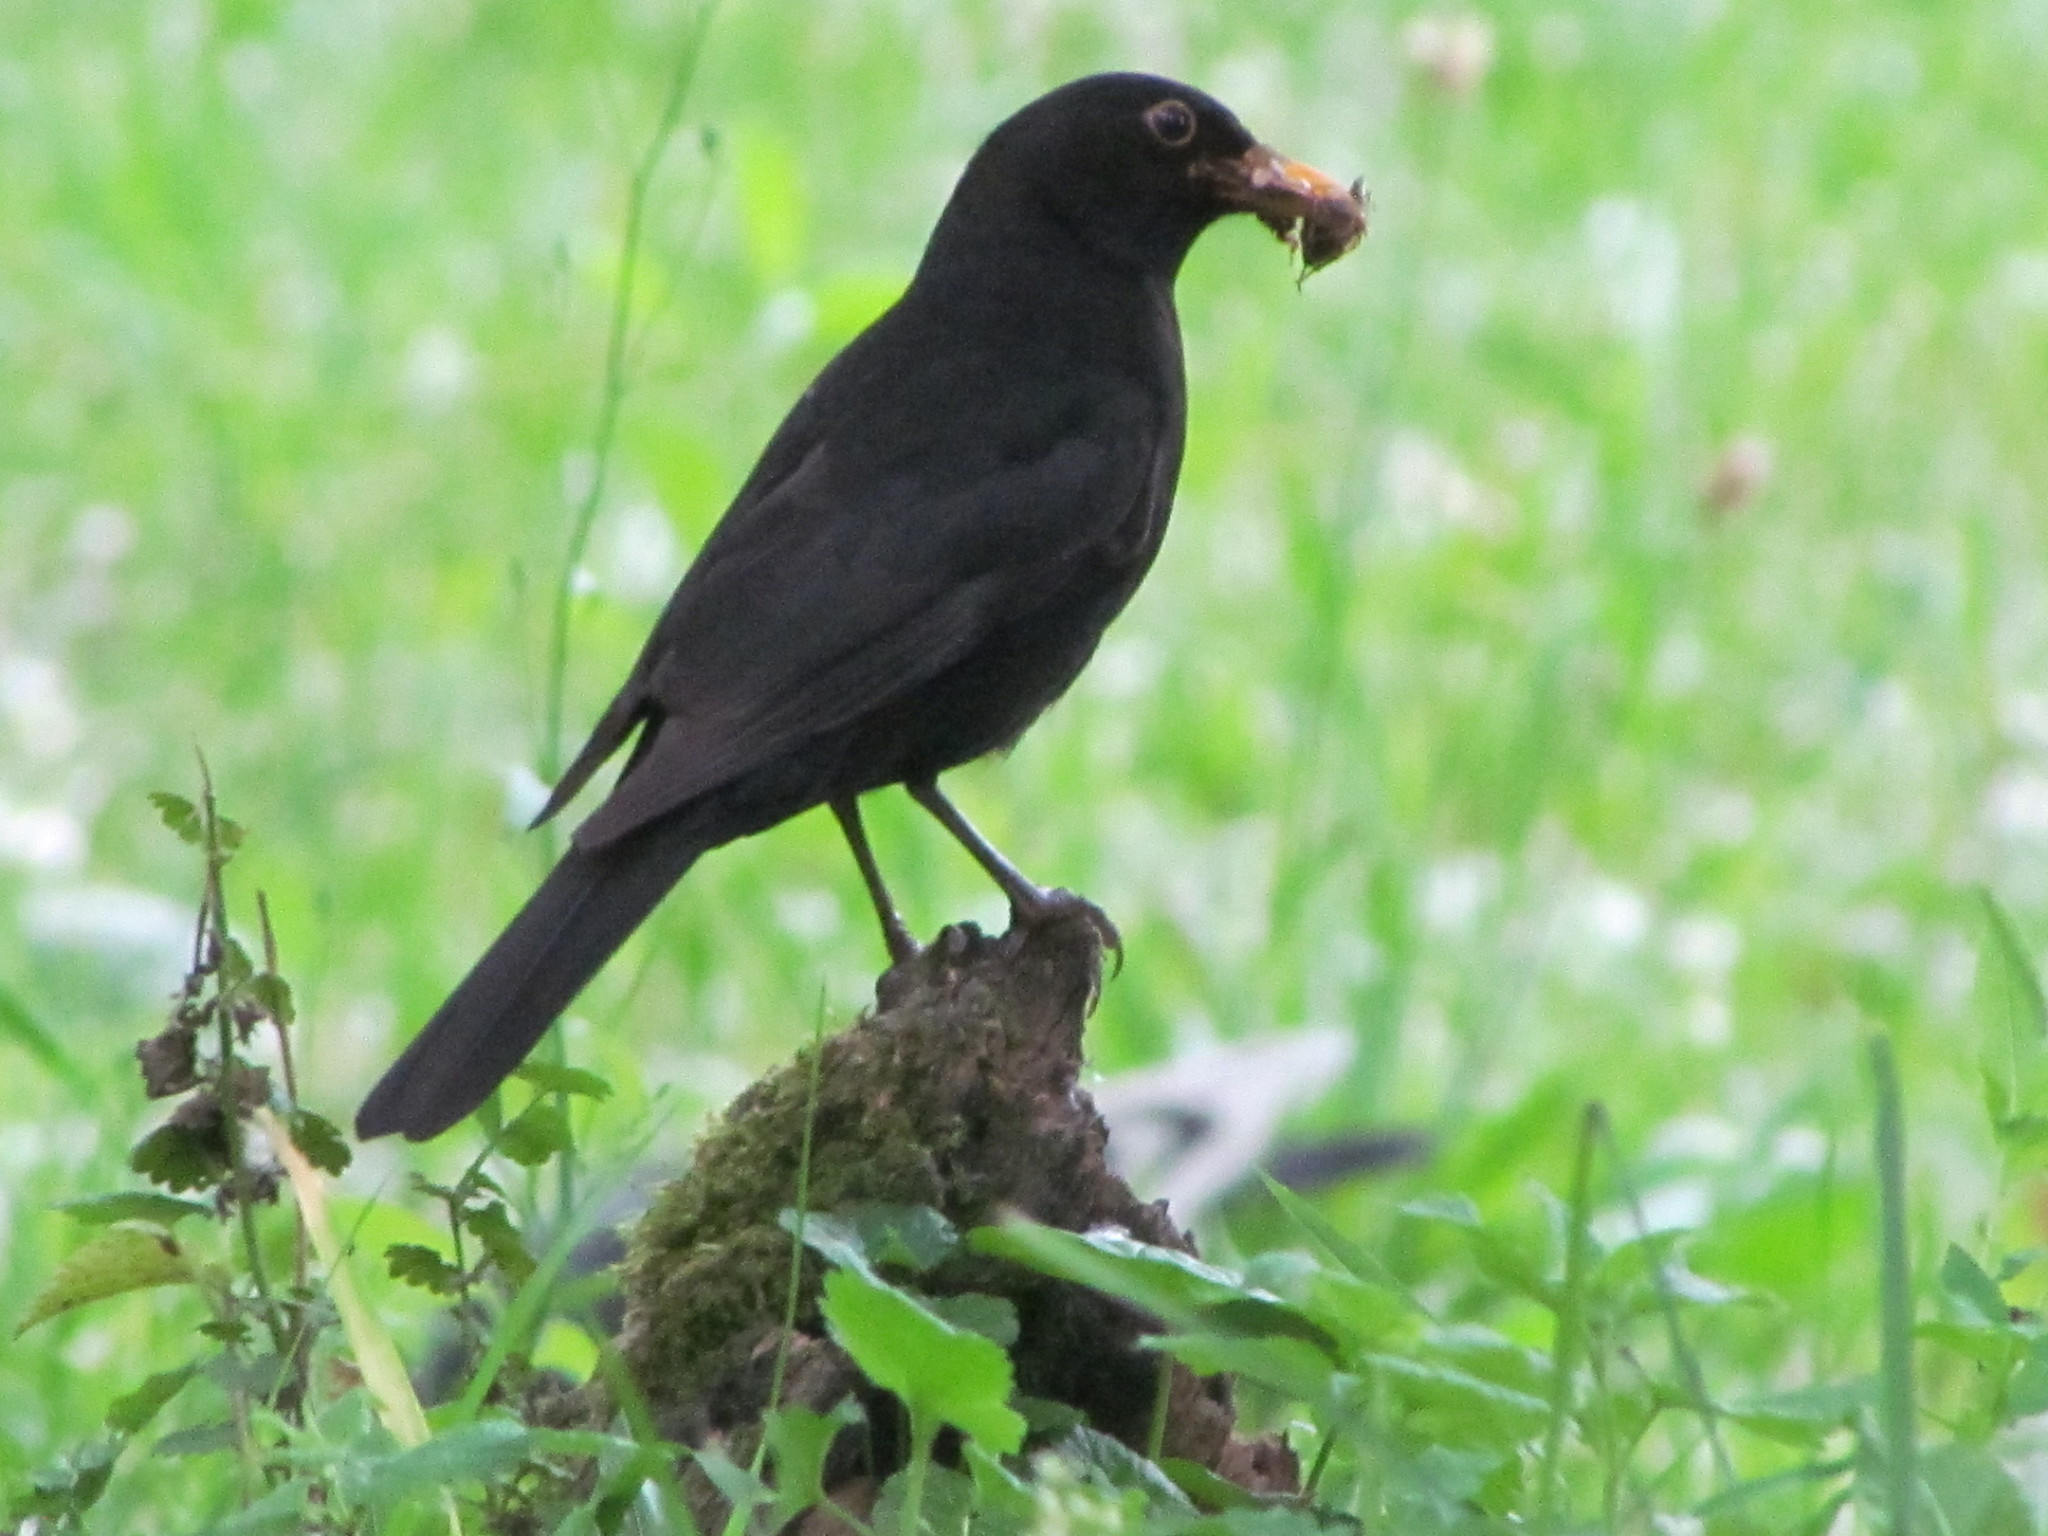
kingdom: Animalia
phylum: Chordata
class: Aves
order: Passeriformes
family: Turdidae
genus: Turdus
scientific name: Turdus merula
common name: Common blackbird
